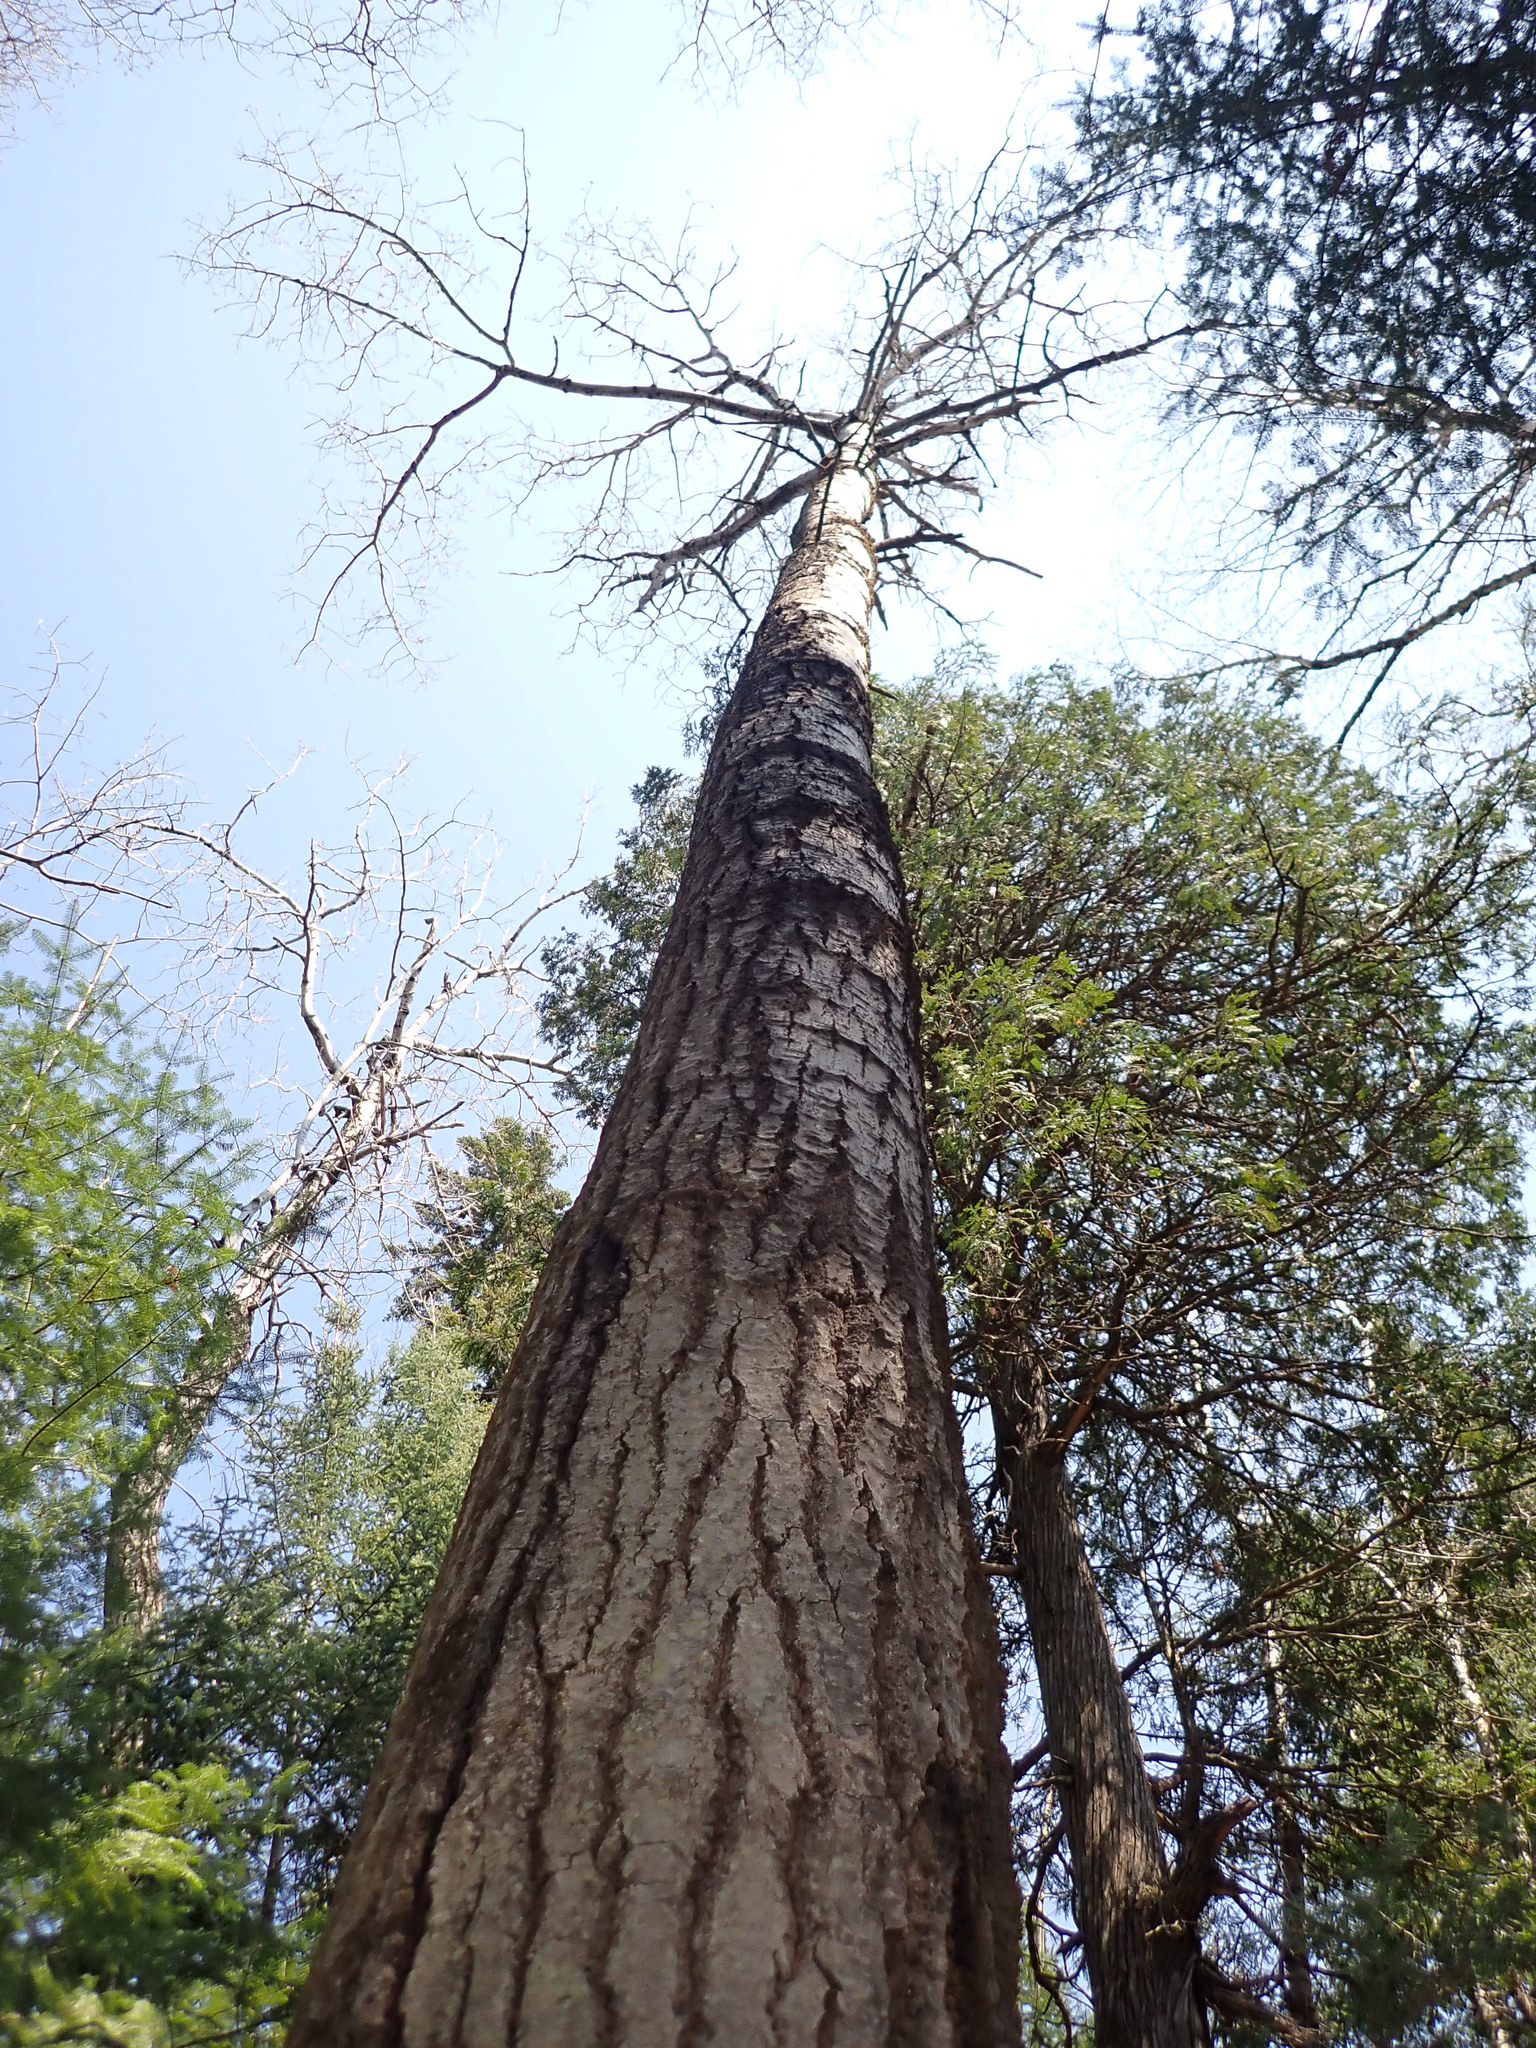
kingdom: Plantae
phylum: Tracheophyta
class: Magnoliopsida
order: Malpighiales
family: Salicaceae
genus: Populus
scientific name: Populus tremuloides
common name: Quaking aspen
